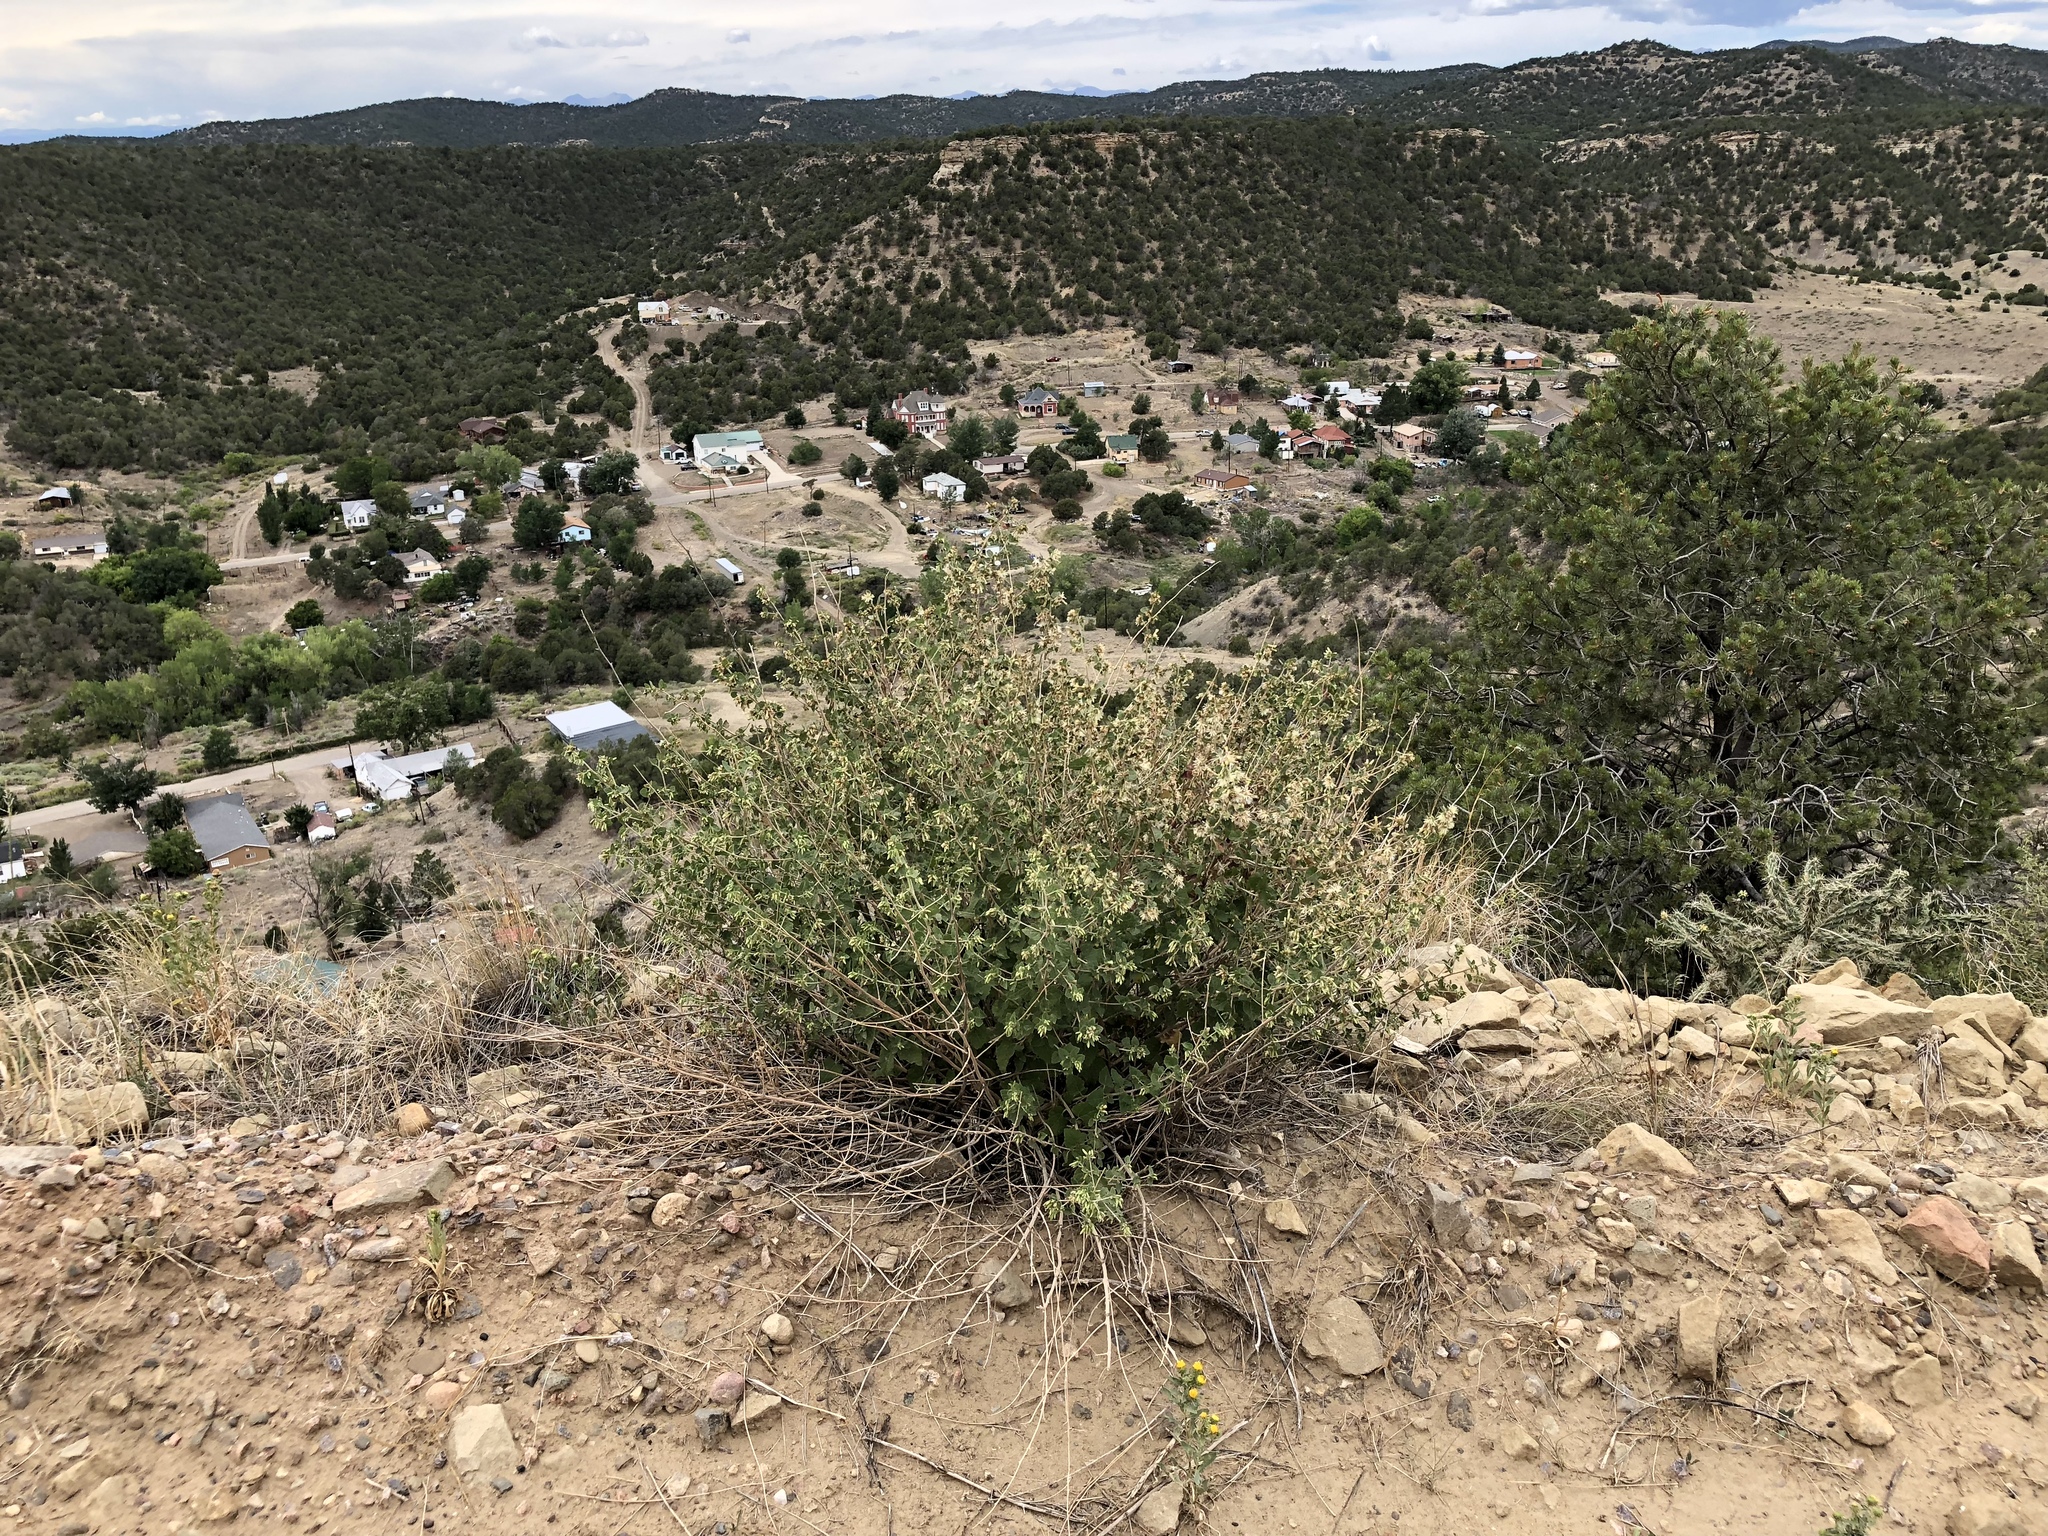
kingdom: Plantae
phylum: Tracheophyta
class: Magnoliopsida
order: Asterales
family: Asteraceae
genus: Brickellia
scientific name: Brickellia californica
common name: California brickellbush
